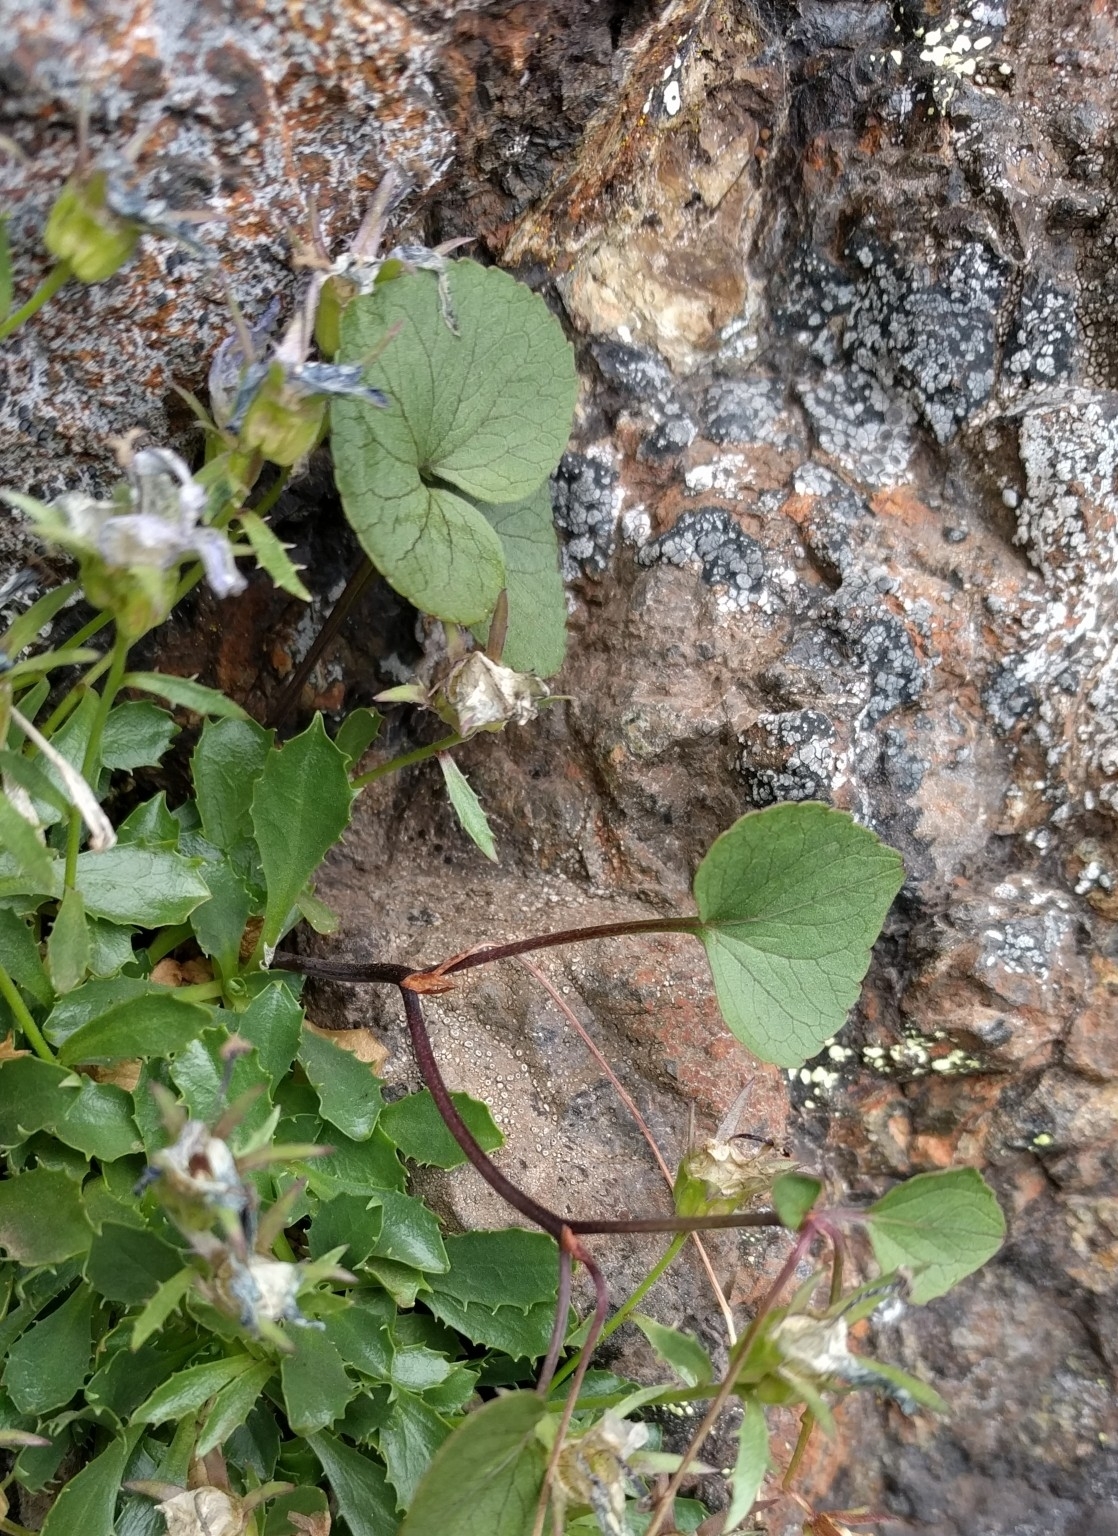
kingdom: Plantae
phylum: Tracheophyta
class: Magnoliopsida
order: Malpighiales
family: Violaceae
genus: Viola
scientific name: Viola flettii
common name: Rock violet
